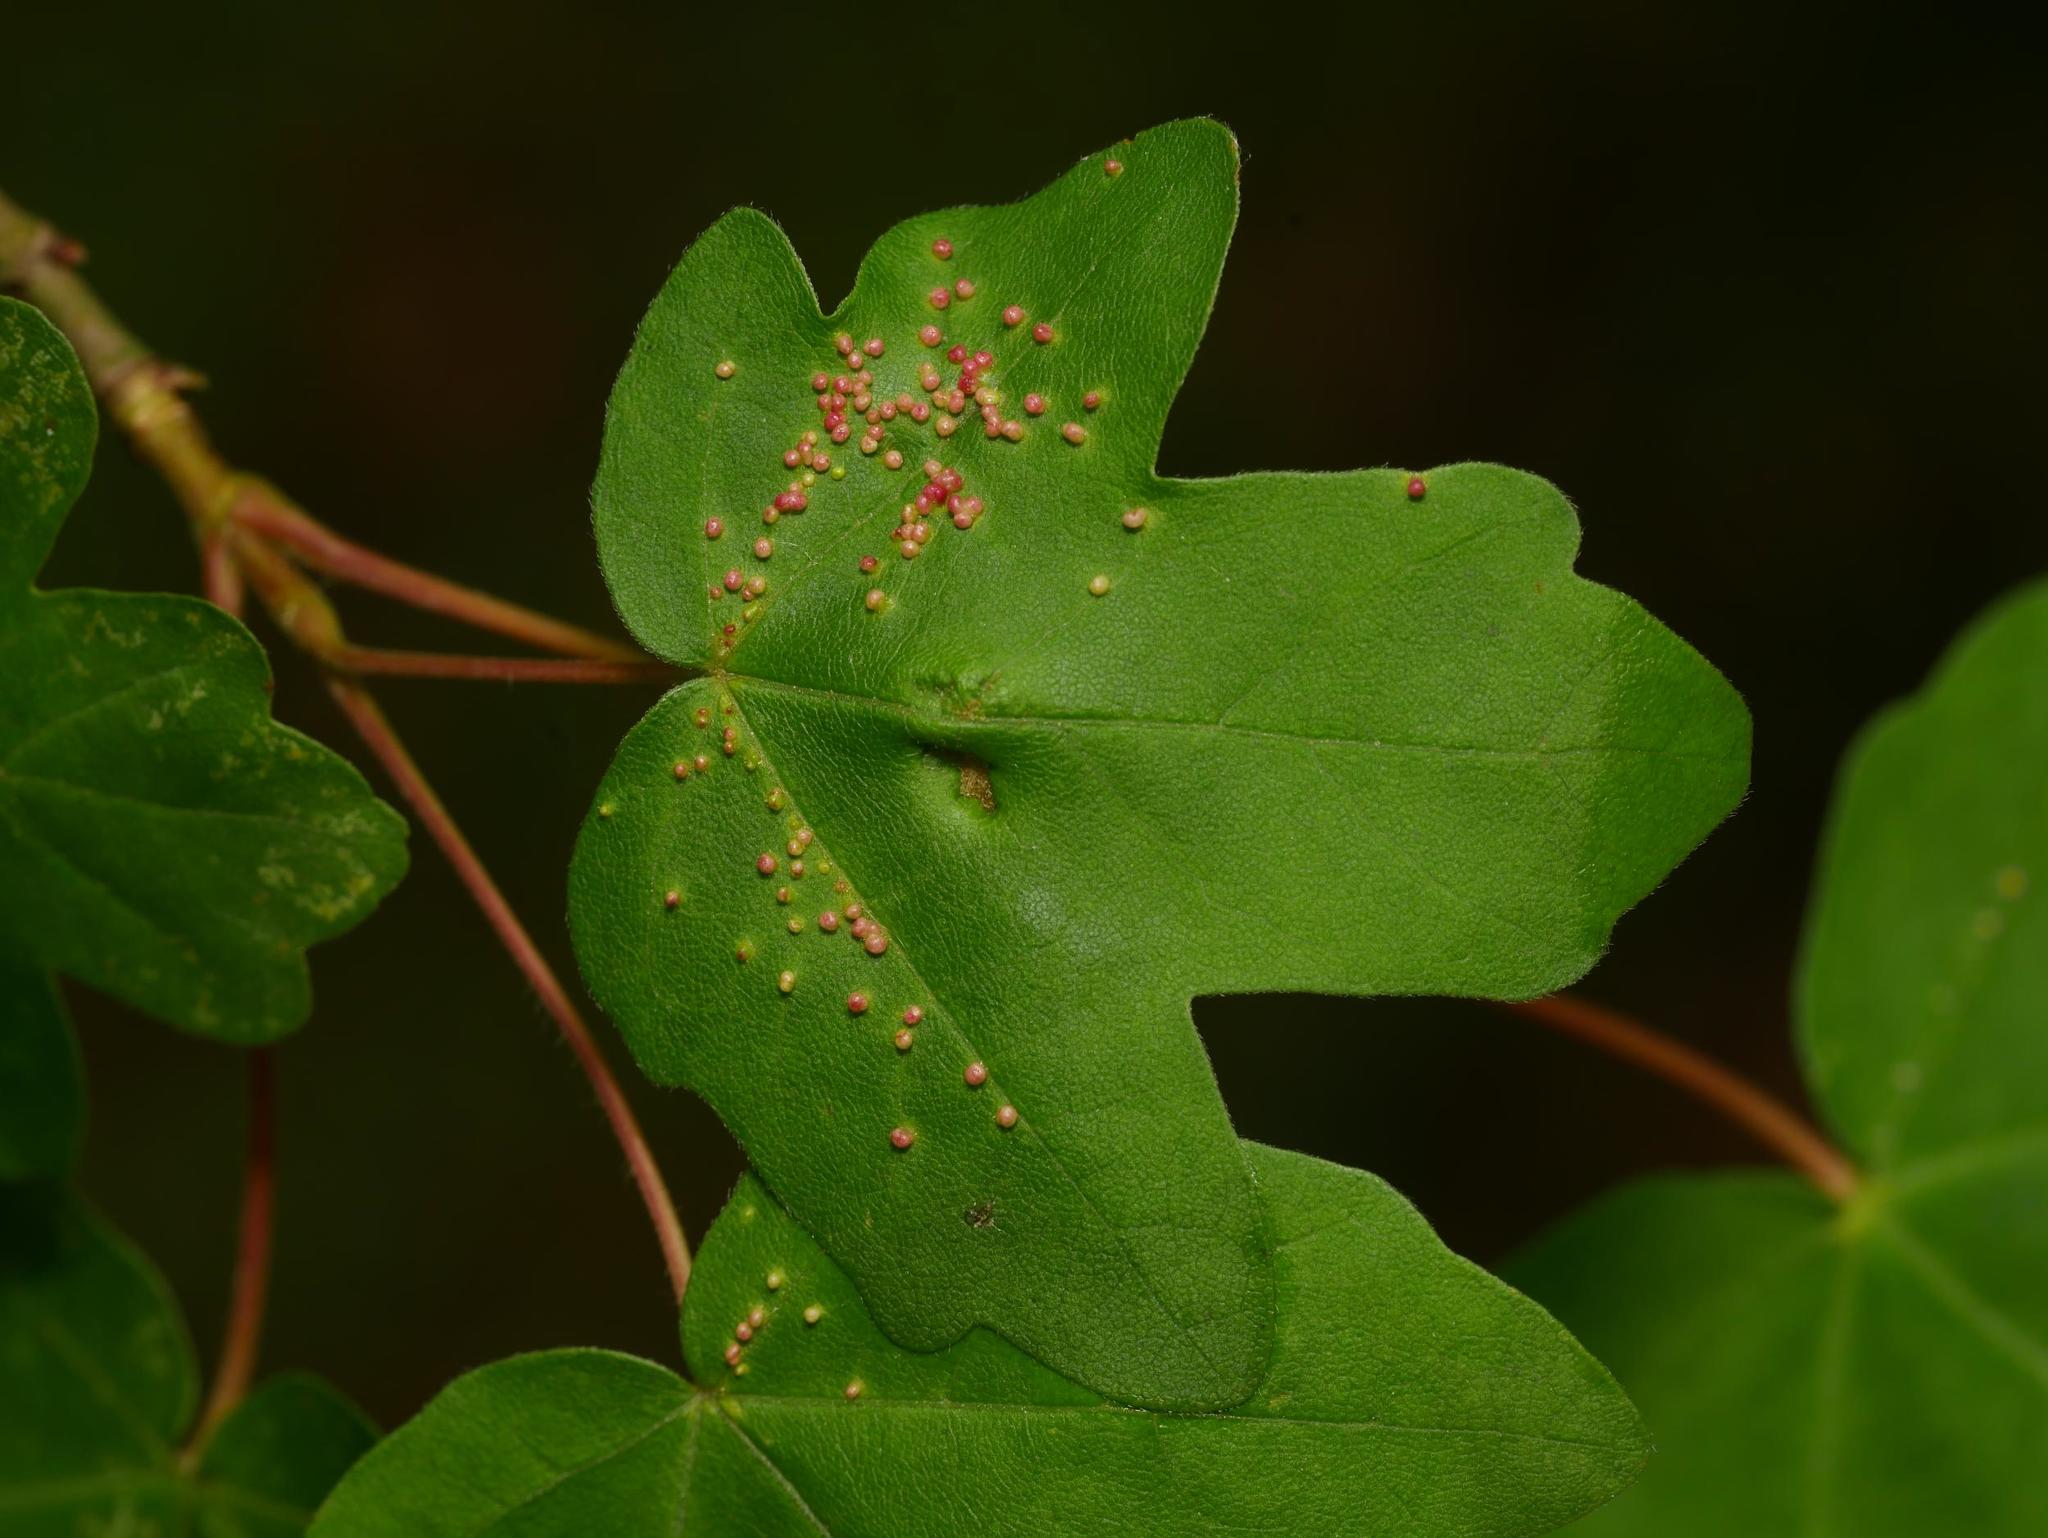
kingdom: Animalia
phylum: Arthropoda
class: Arachnida
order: Trombidiformes
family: Eriophyidae
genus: Aceria
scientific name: Aceria myriadeum
